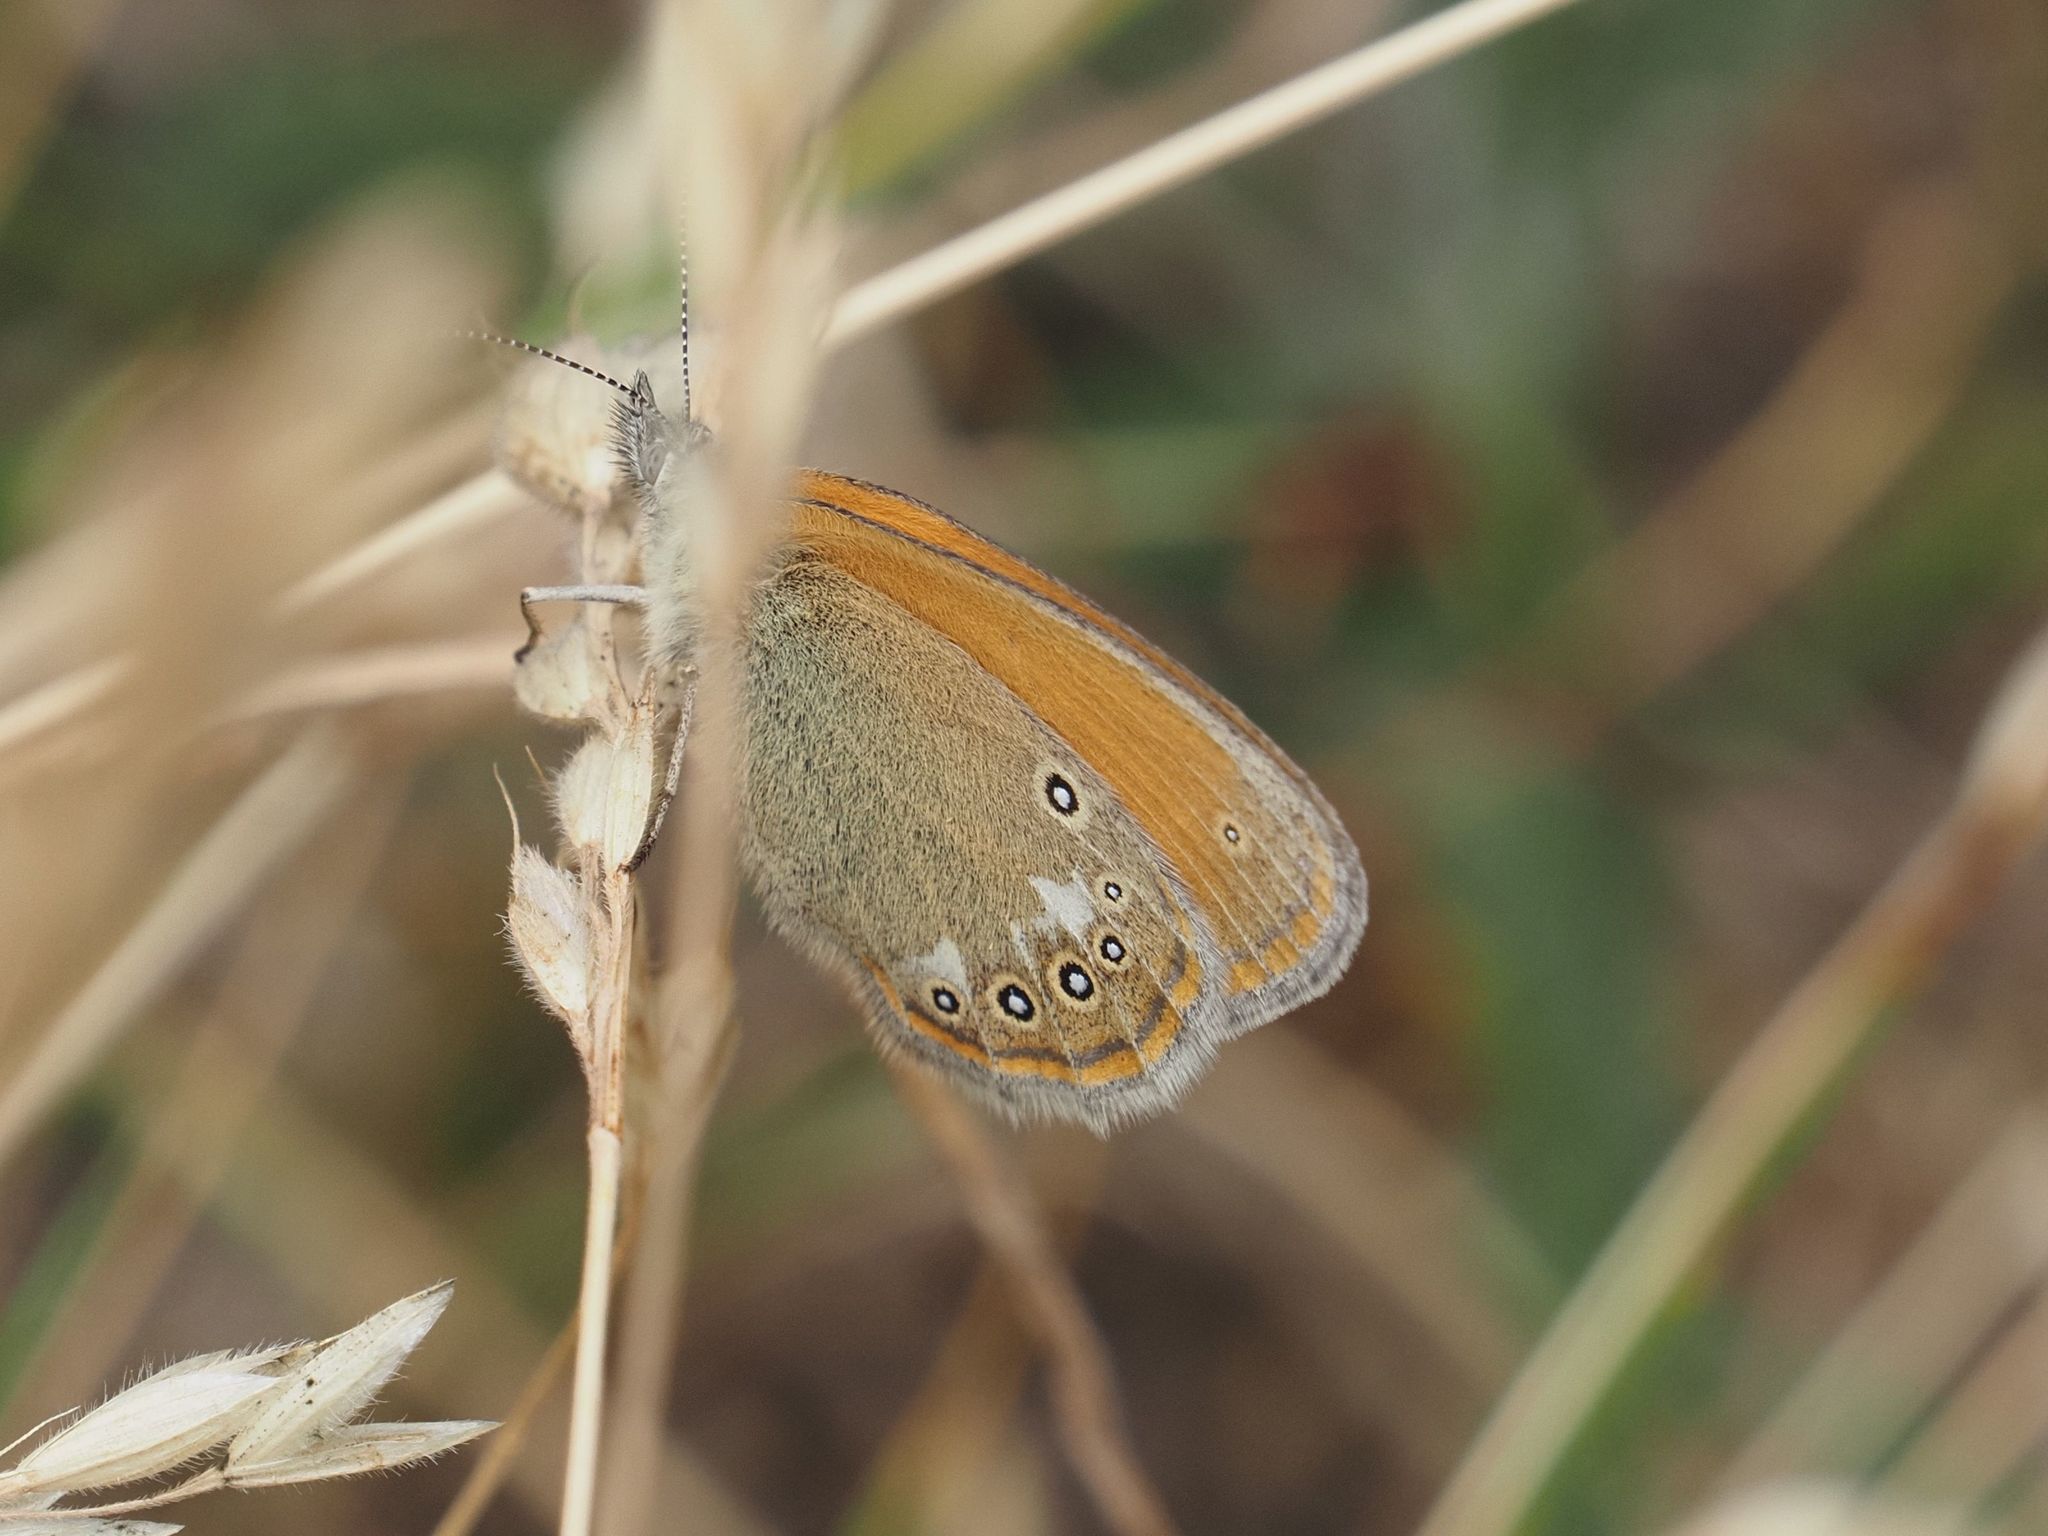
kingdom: Animalia
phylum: Arthropoda
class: Insecta
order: Lepidoptera
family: Nymphalidae
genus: Coenonympha
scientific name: Coenonympha iphis
